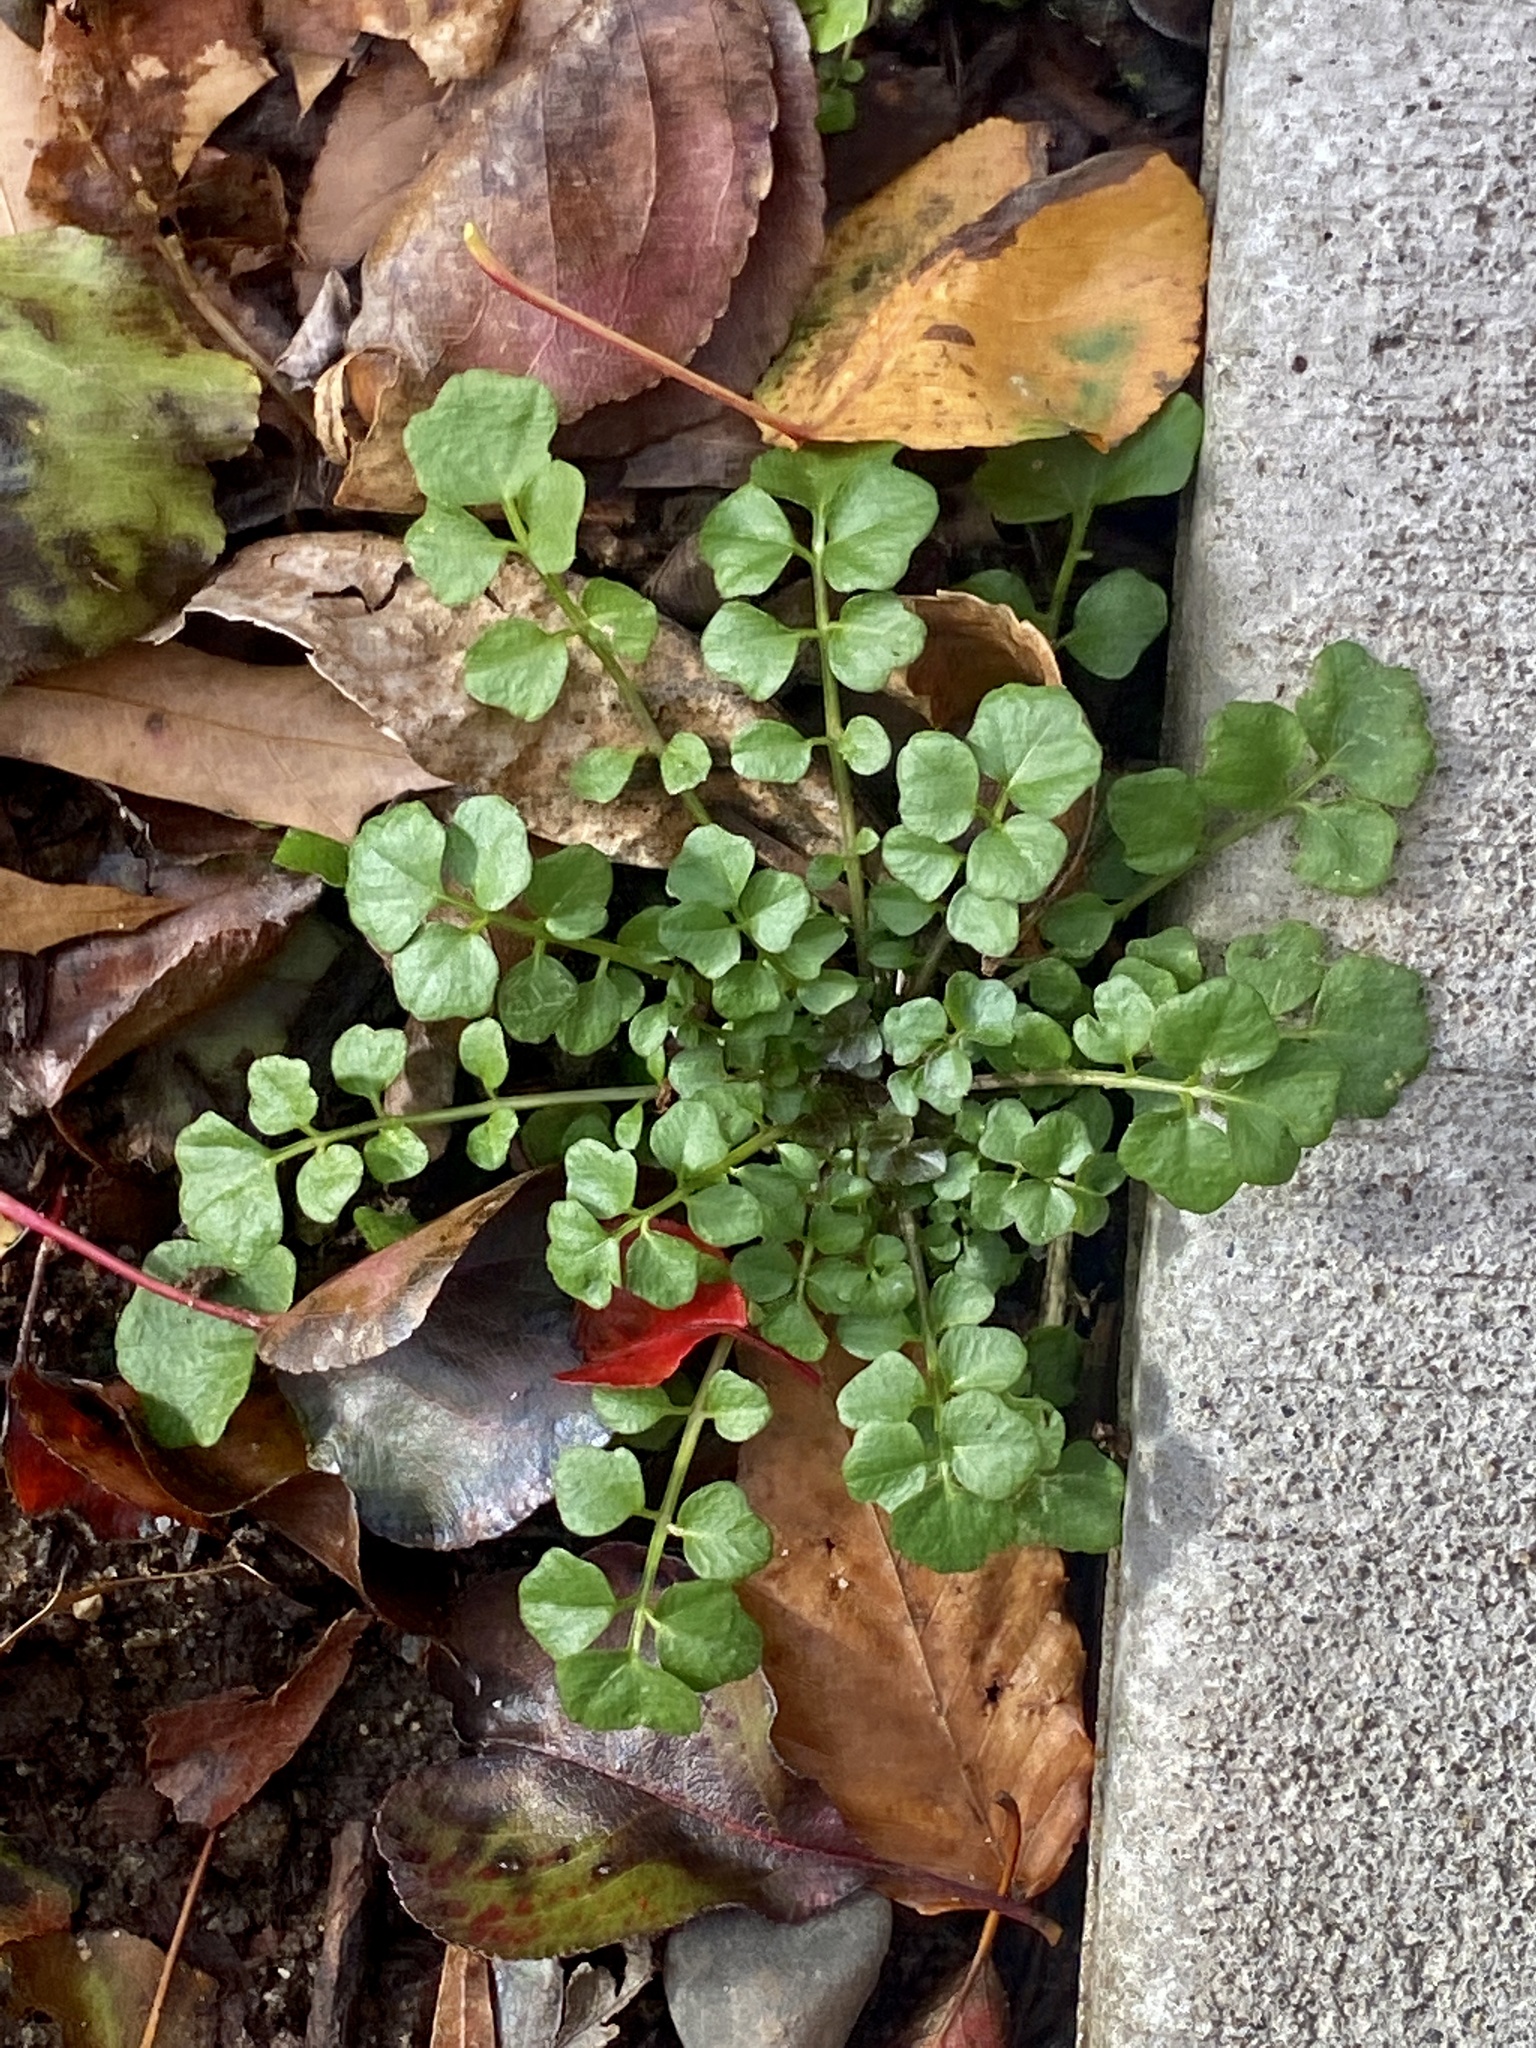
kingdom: Plantae
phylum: Tracheophyta
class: Magnoliopsida
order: Brassicales
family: Brassicaceae
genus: Cardamine
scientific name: Cardamine hirsuta
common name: Hairy bittercress
